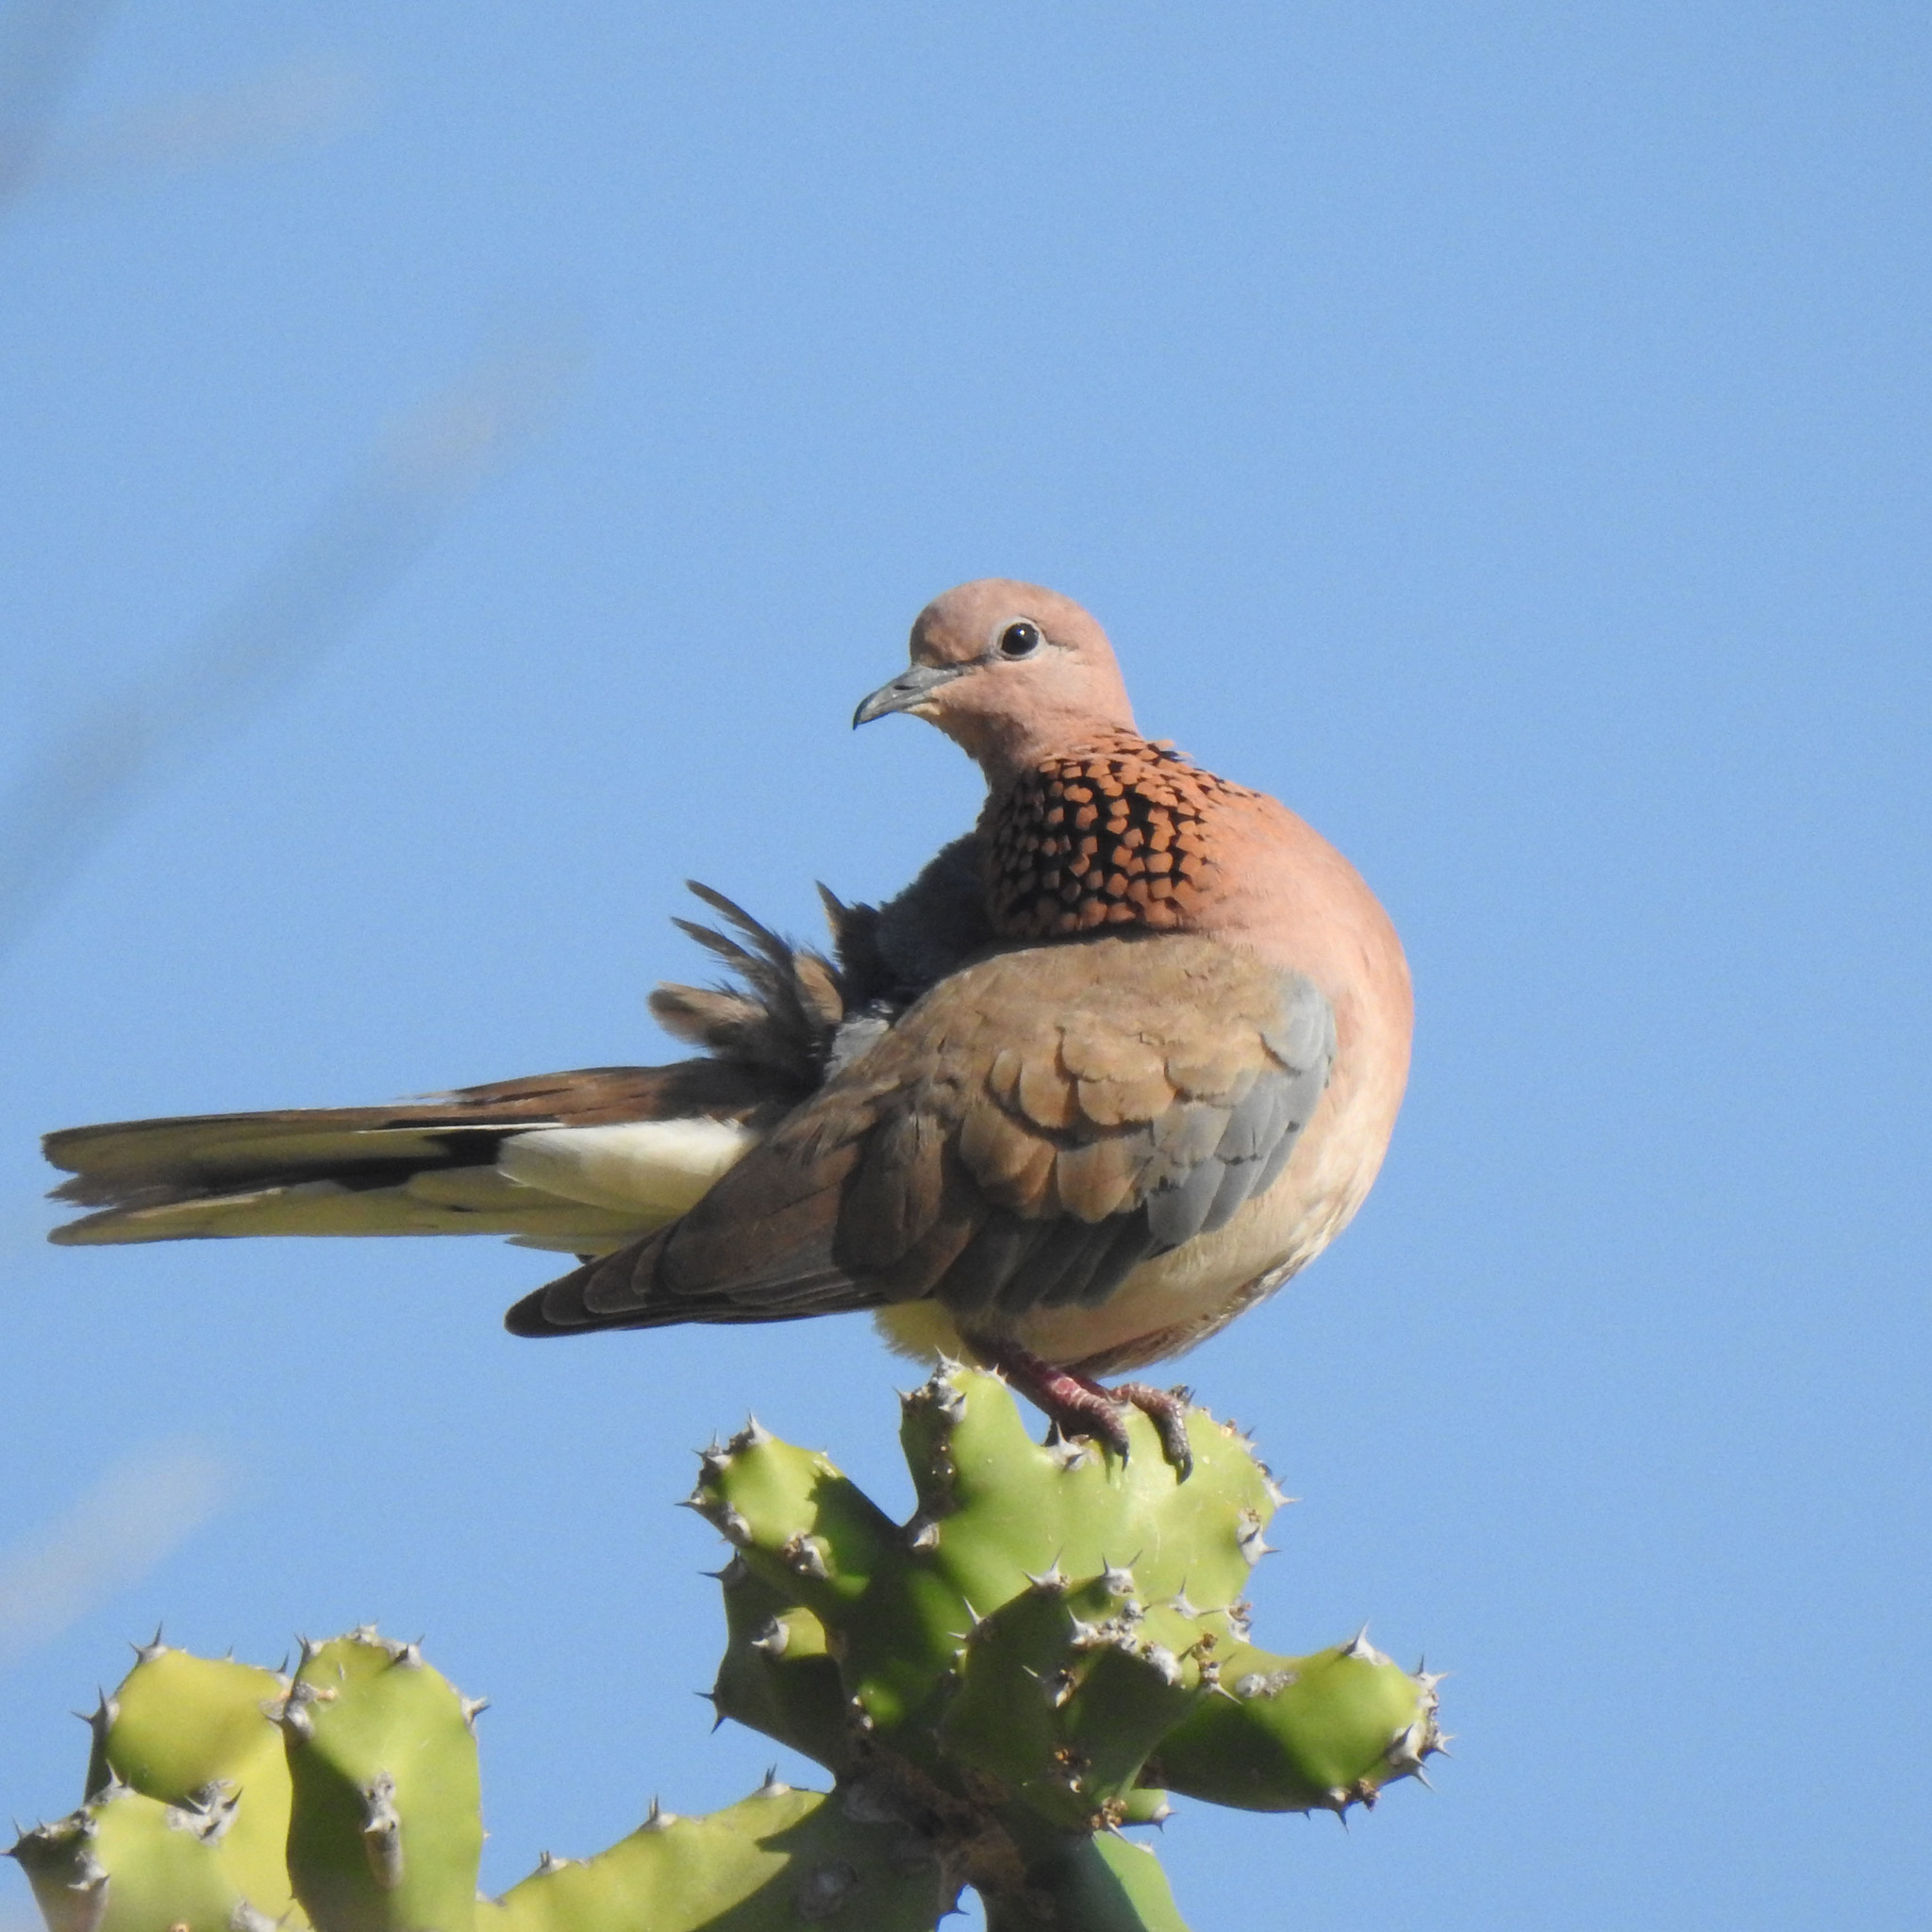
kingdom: Animalia
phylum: Chordata
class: Aves
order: Columbiformes
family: Columbidae
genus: Spilopelia
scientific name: Spilopelia senegalensis
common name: Laughing dove
